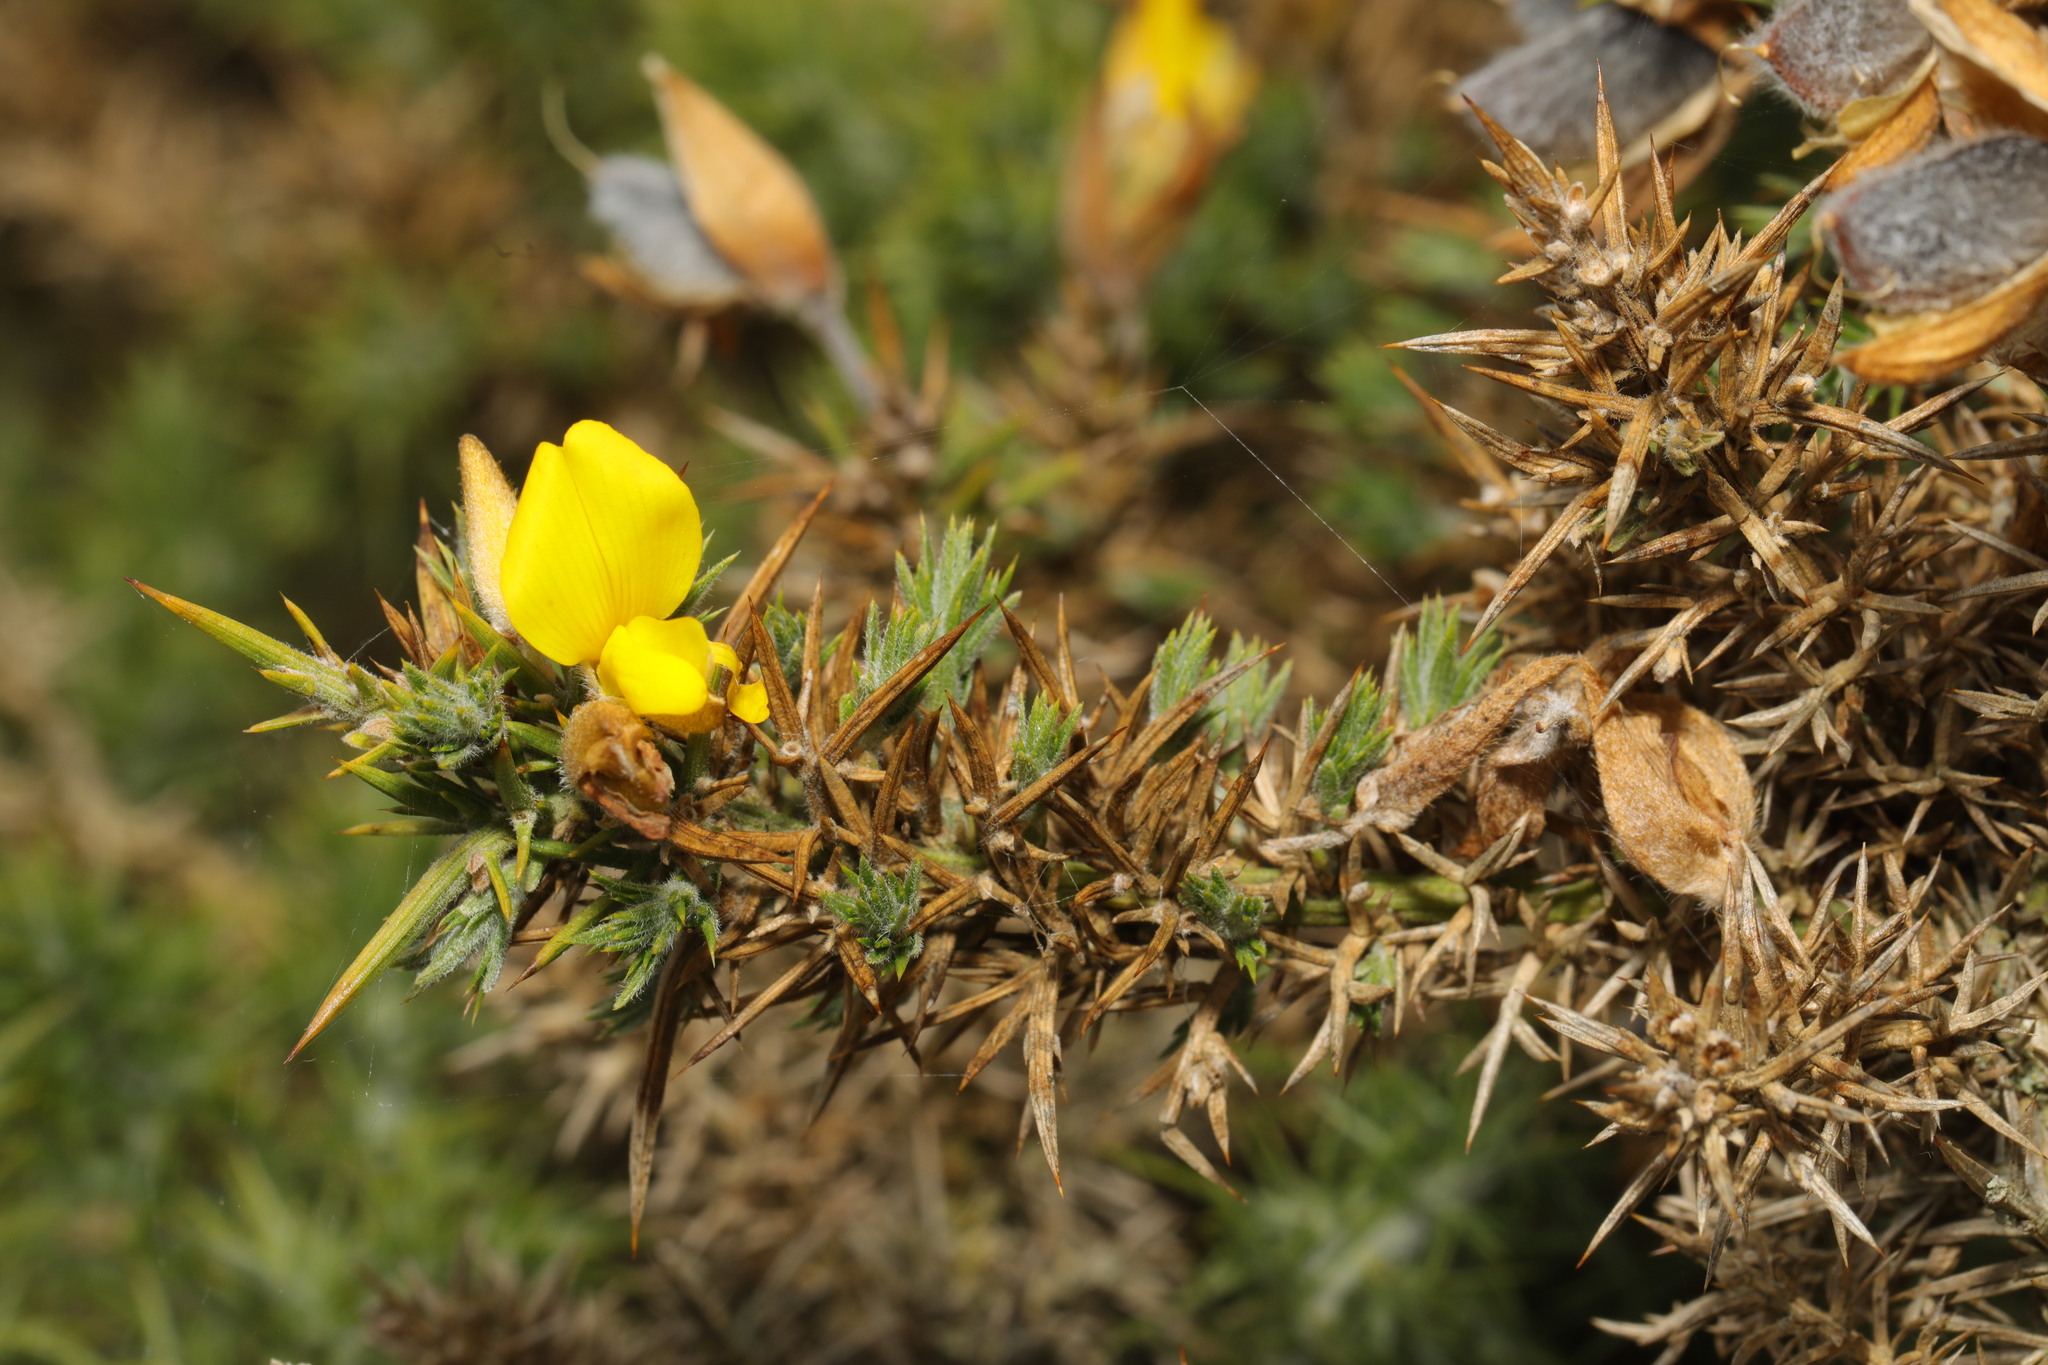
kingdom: Plantae
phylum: Tracheophyta
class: Magnoliopsida
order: Fabales
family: Fabaceae
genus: Ulex
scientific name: Ulex europaeus
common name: Common gorse
